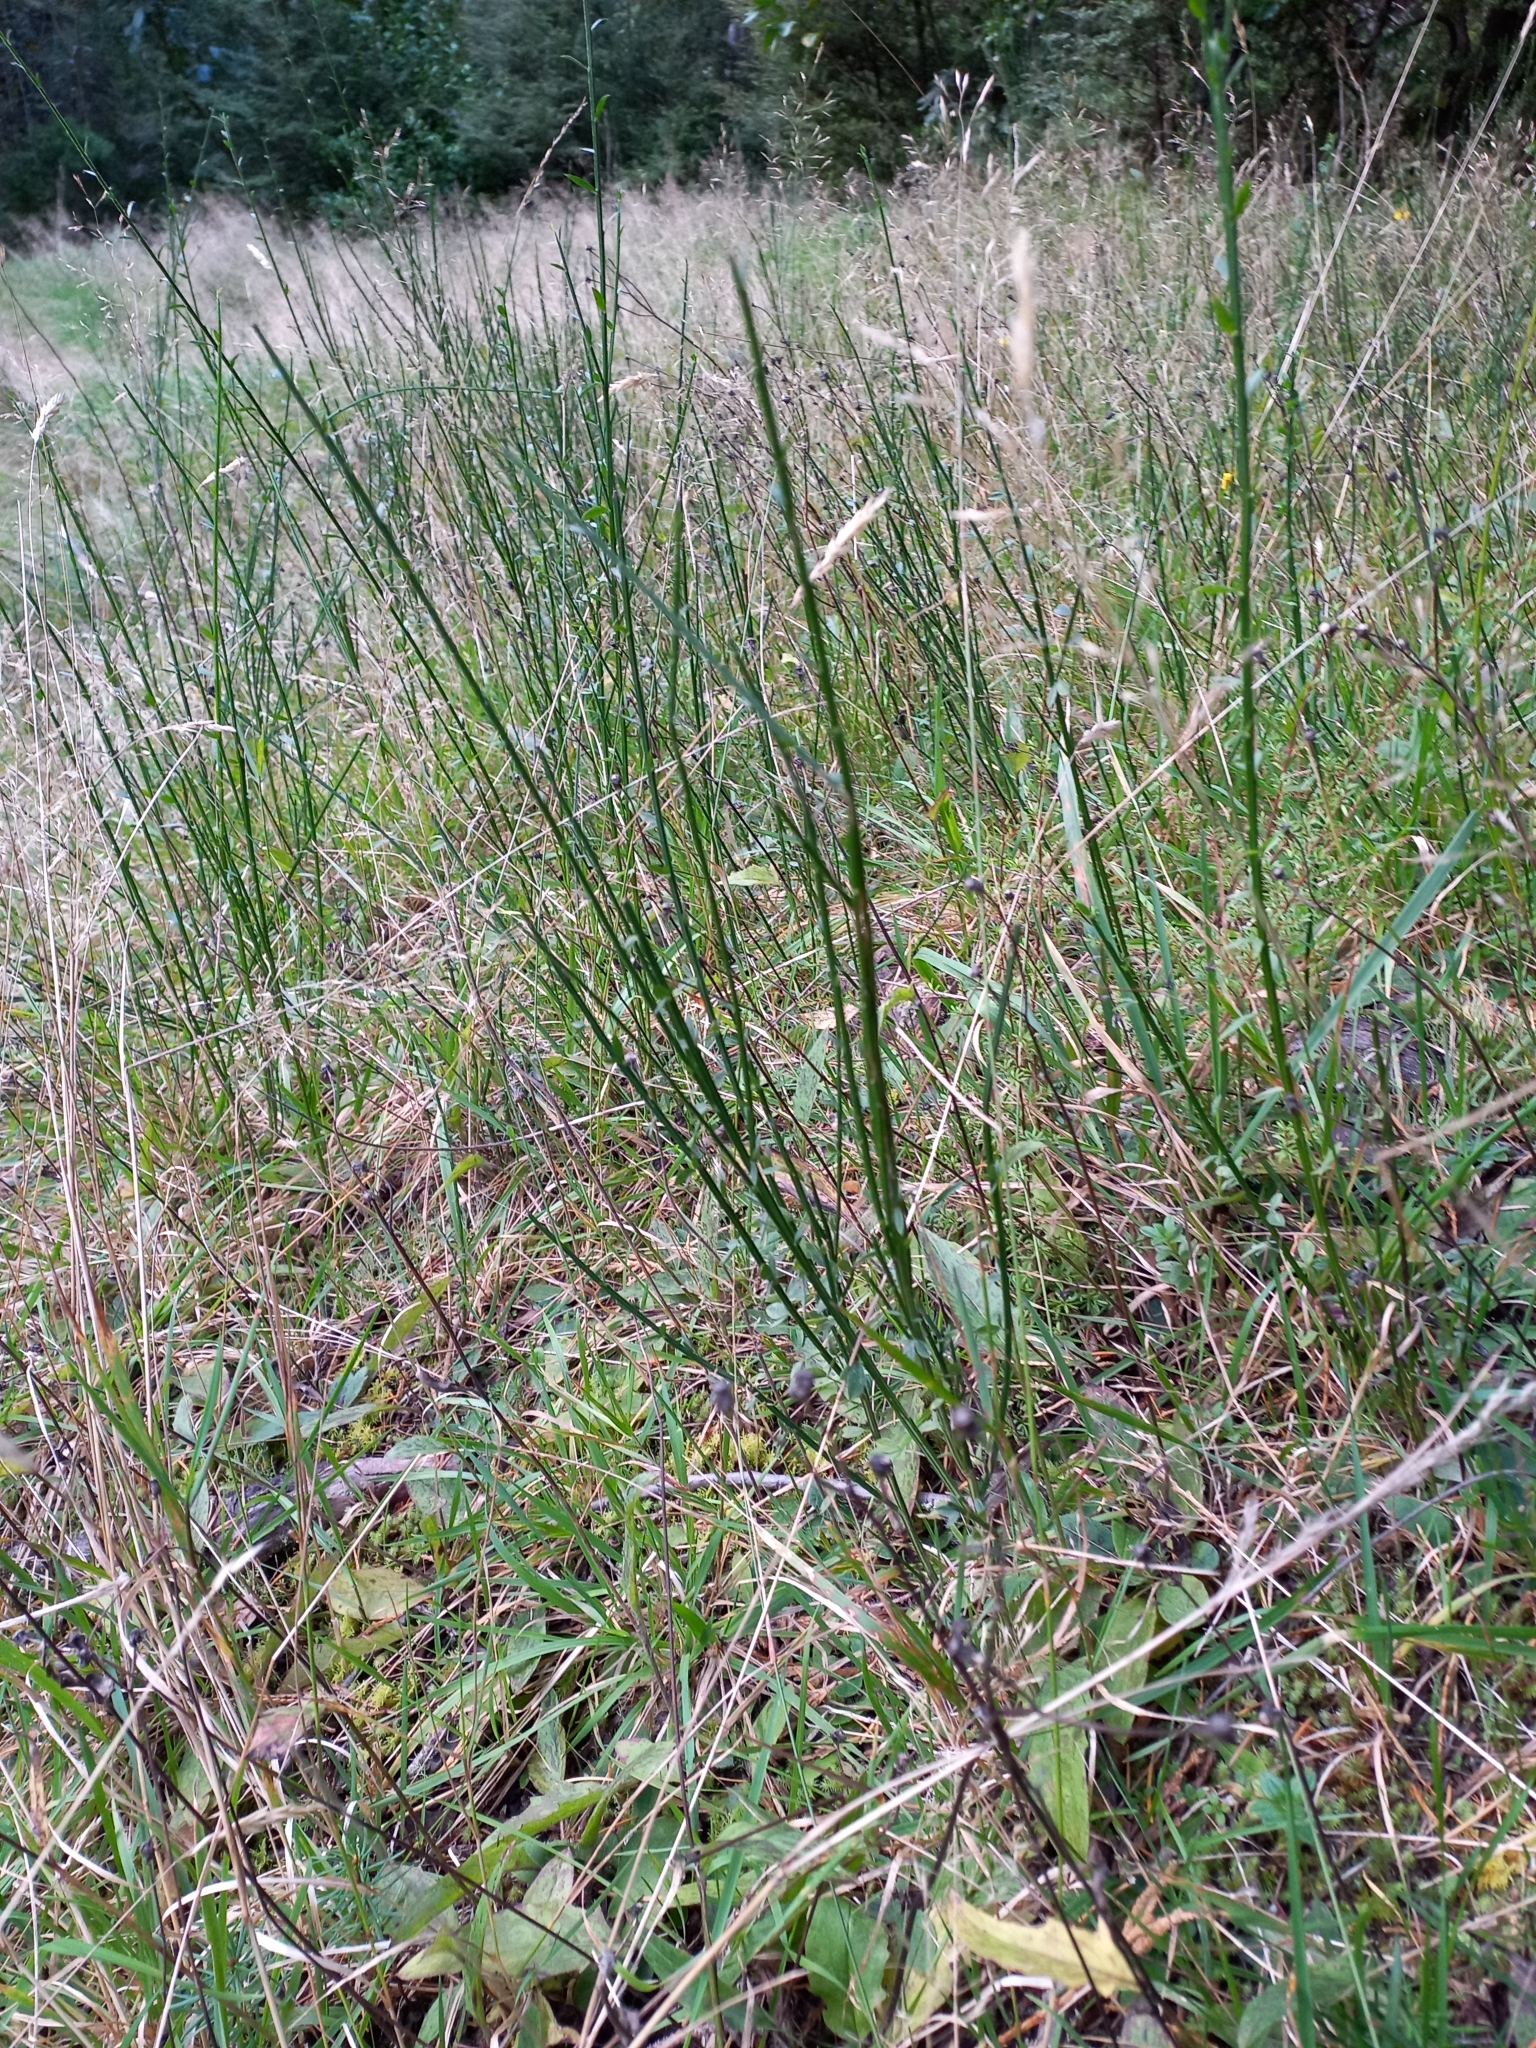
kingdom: Plantae
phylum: Tracheophyta
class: Magnoliopsida
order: Fabales
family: Fabaceae
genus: Cytisus
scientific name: Cytisus scoparius
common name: Scotch broom
